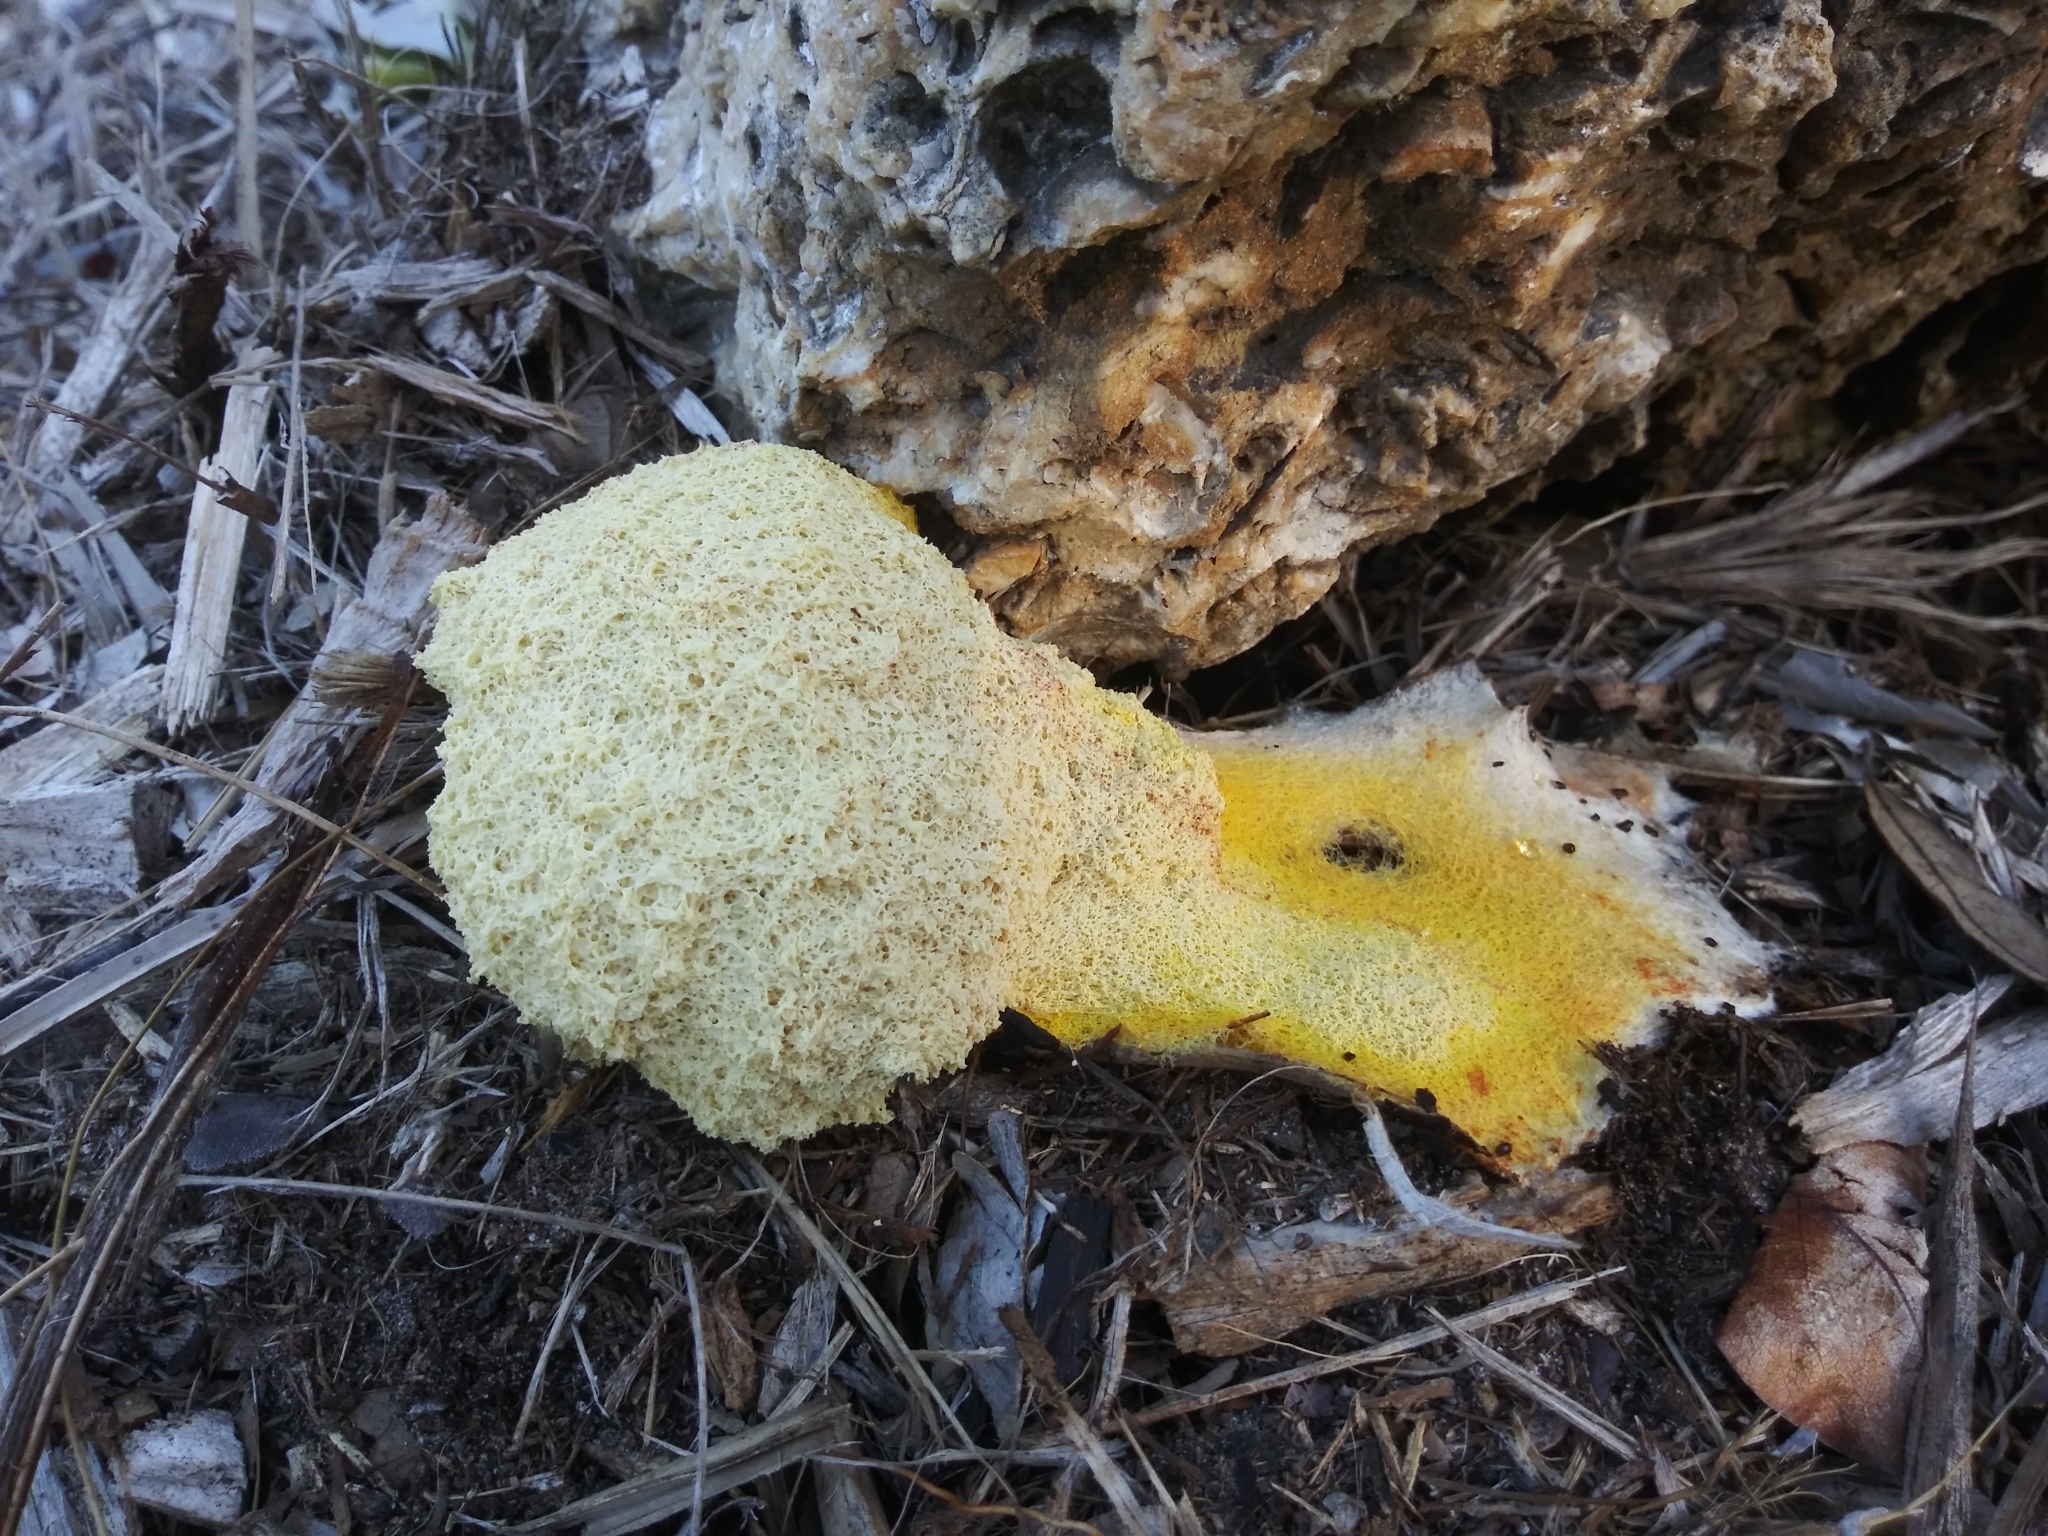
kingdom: Protozoa
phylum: Mycetozoa
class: Myxomycetes
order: Physarales
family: Physaraceae
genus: Fuligo
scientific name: Fuligo septica
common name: Dog vomit slime mold
